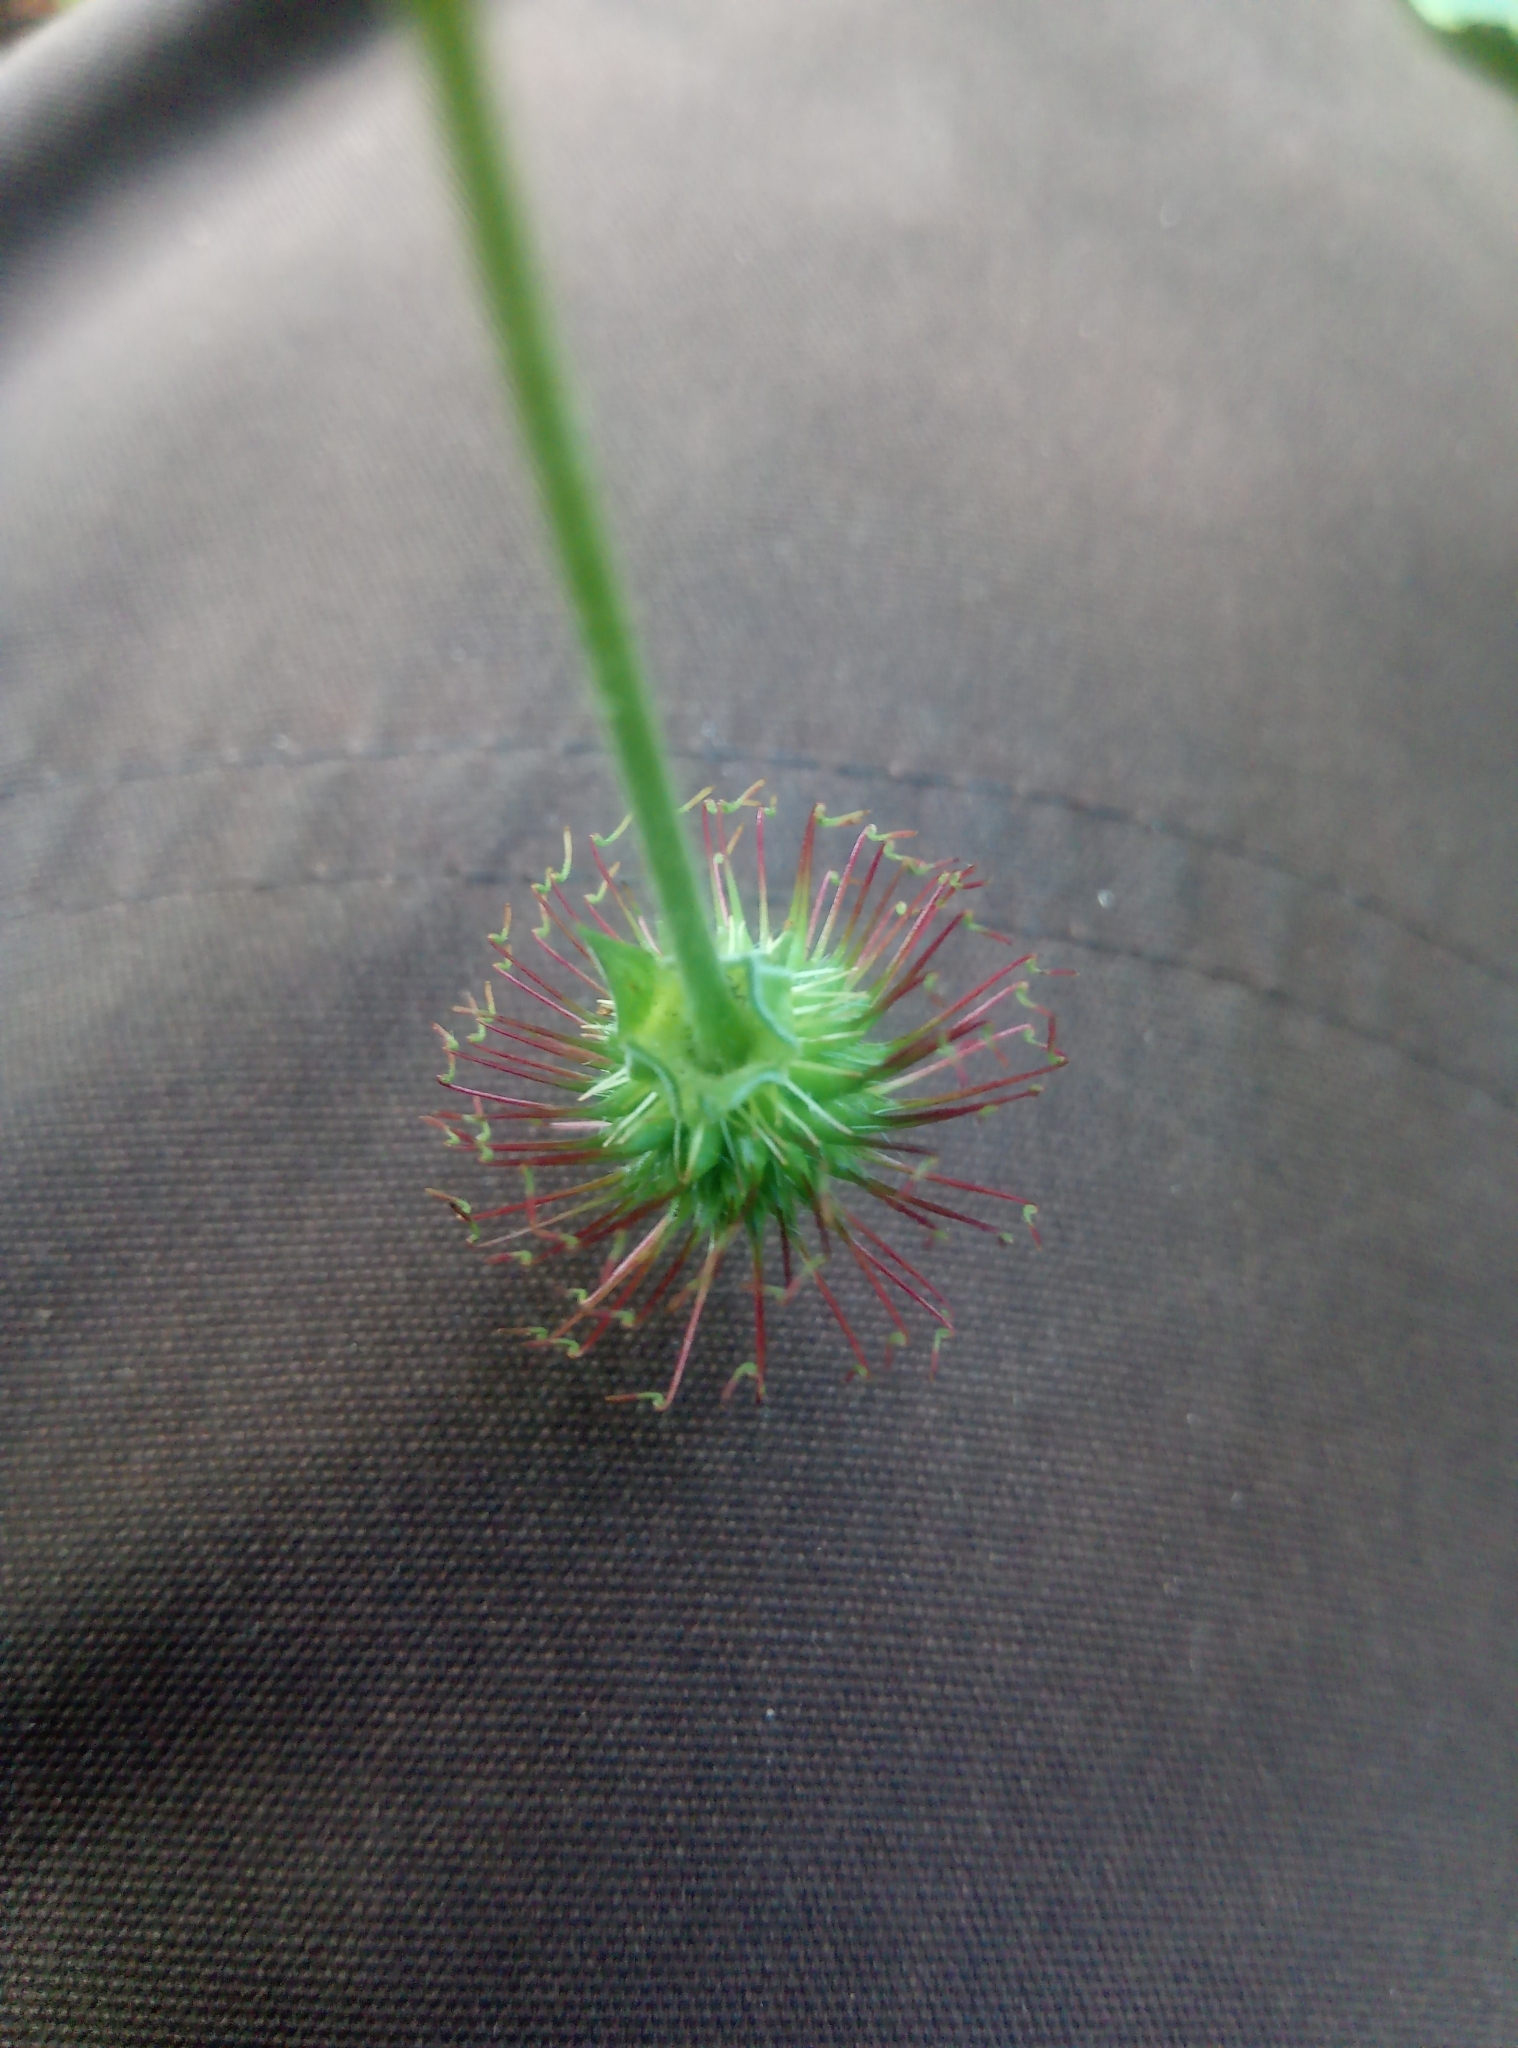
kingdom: Plantae
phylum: Tracheophyta
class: Magnoliopsida
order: Rosales
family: Rosaceae
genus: Geum
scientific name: Geum urbanum
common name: Wood avens
